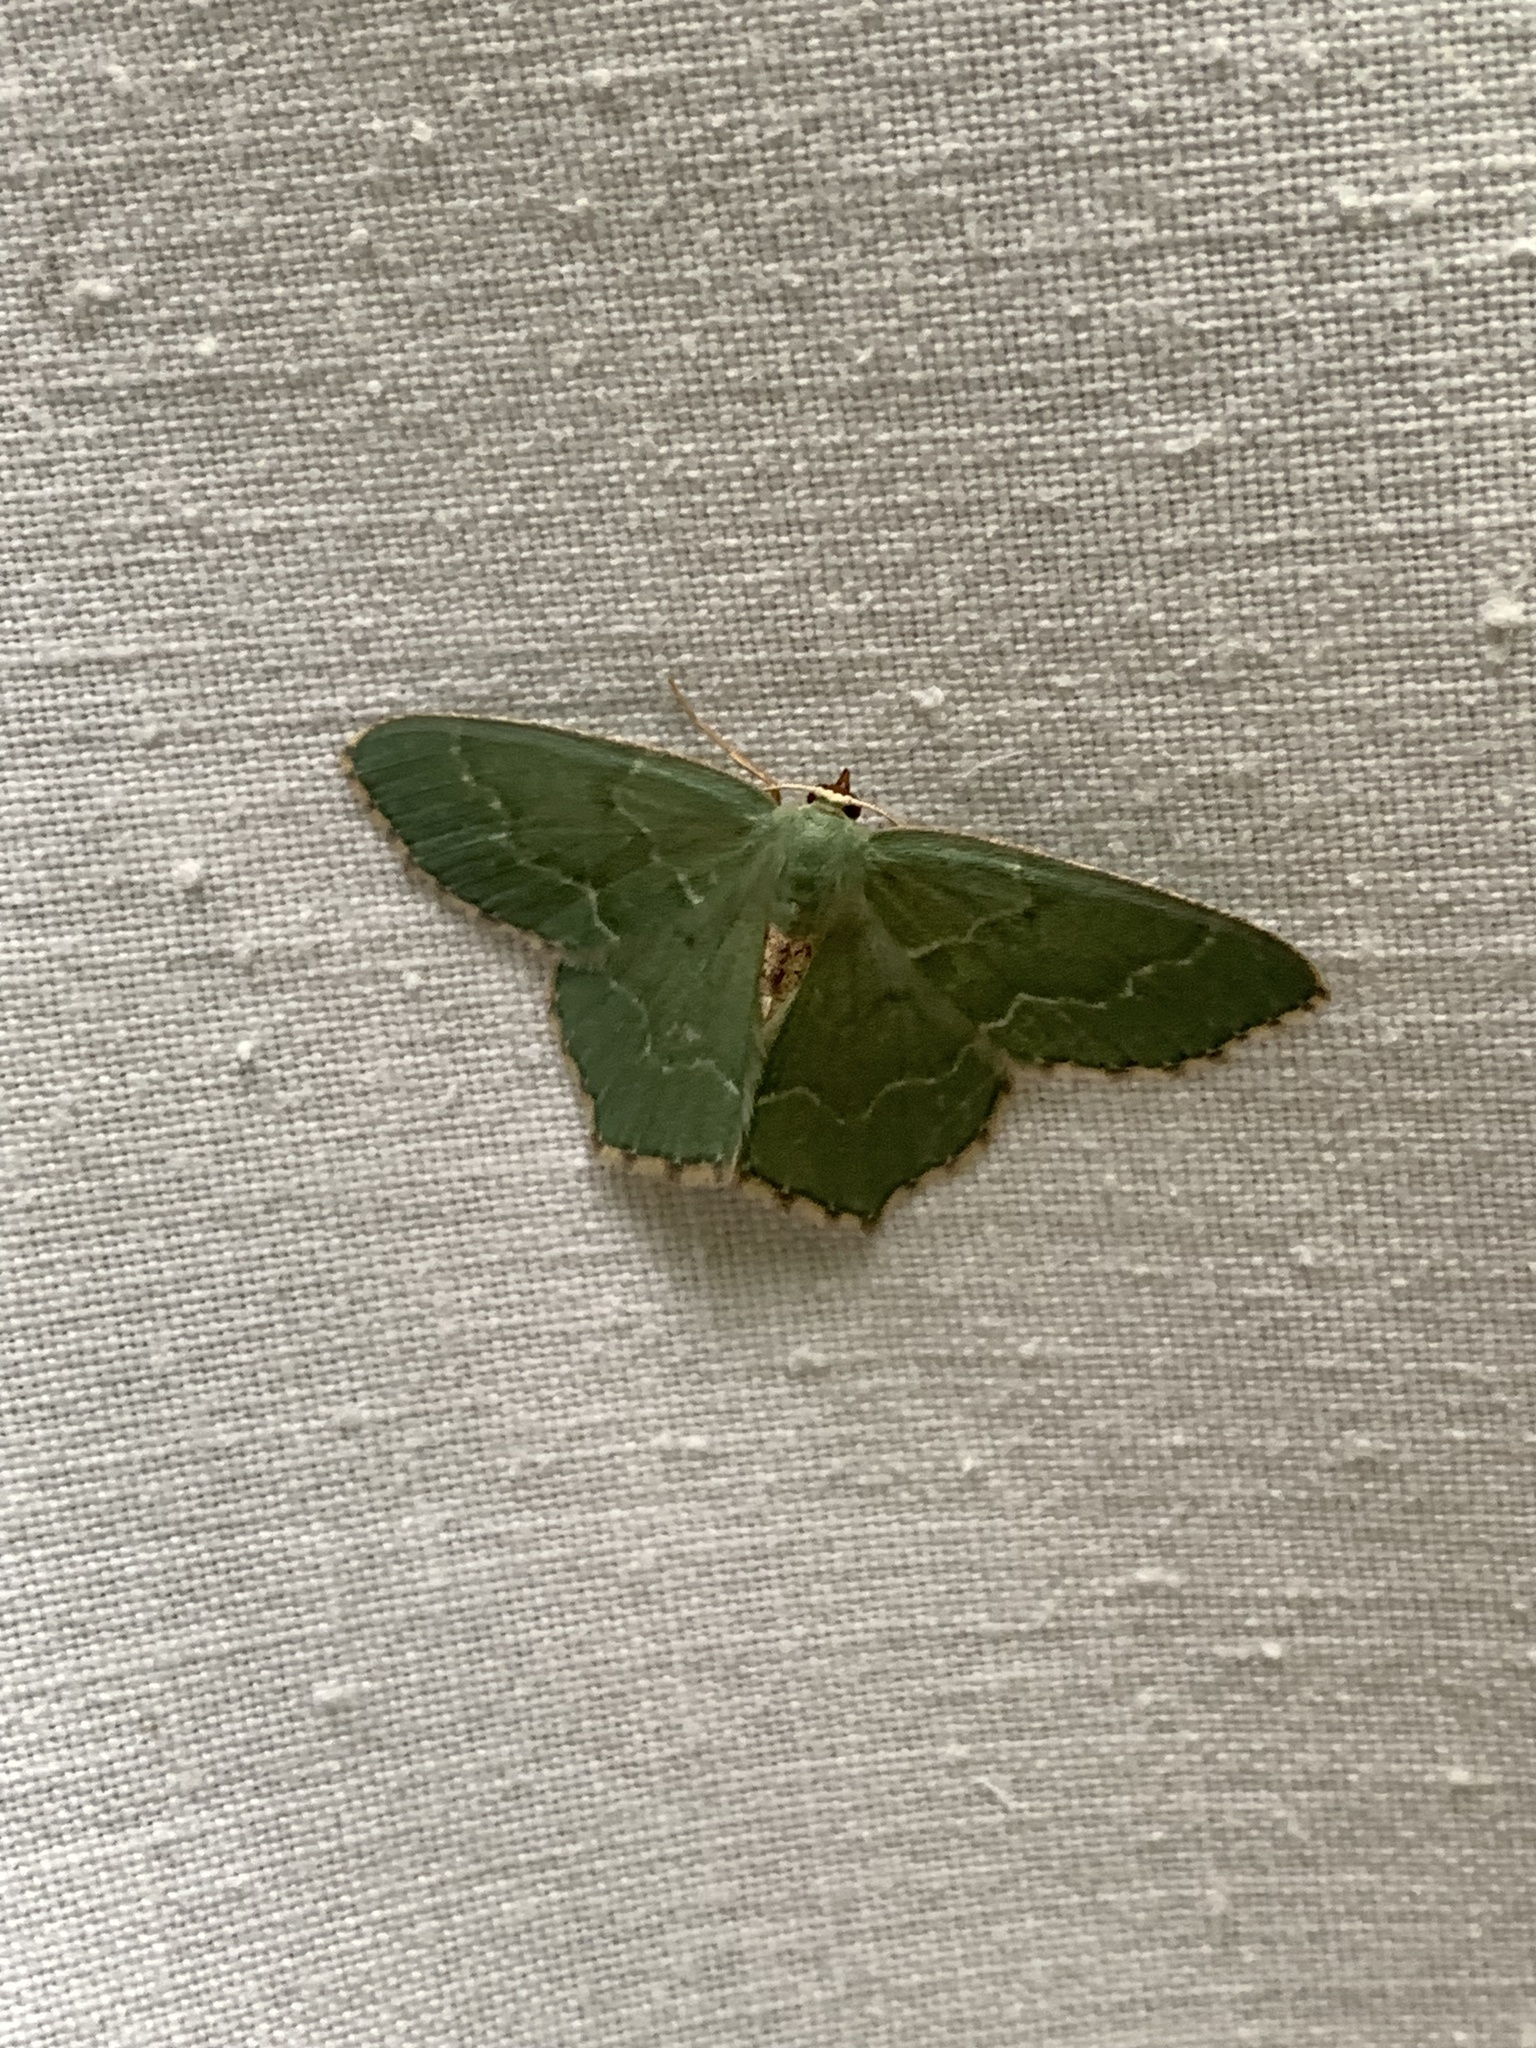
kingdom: Animalia
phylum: Arthropoda
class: Insecta
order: Lepidoptera
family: Geometridae
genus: Hemithea
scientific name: Hemithea aestivaria
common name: Common emerald
